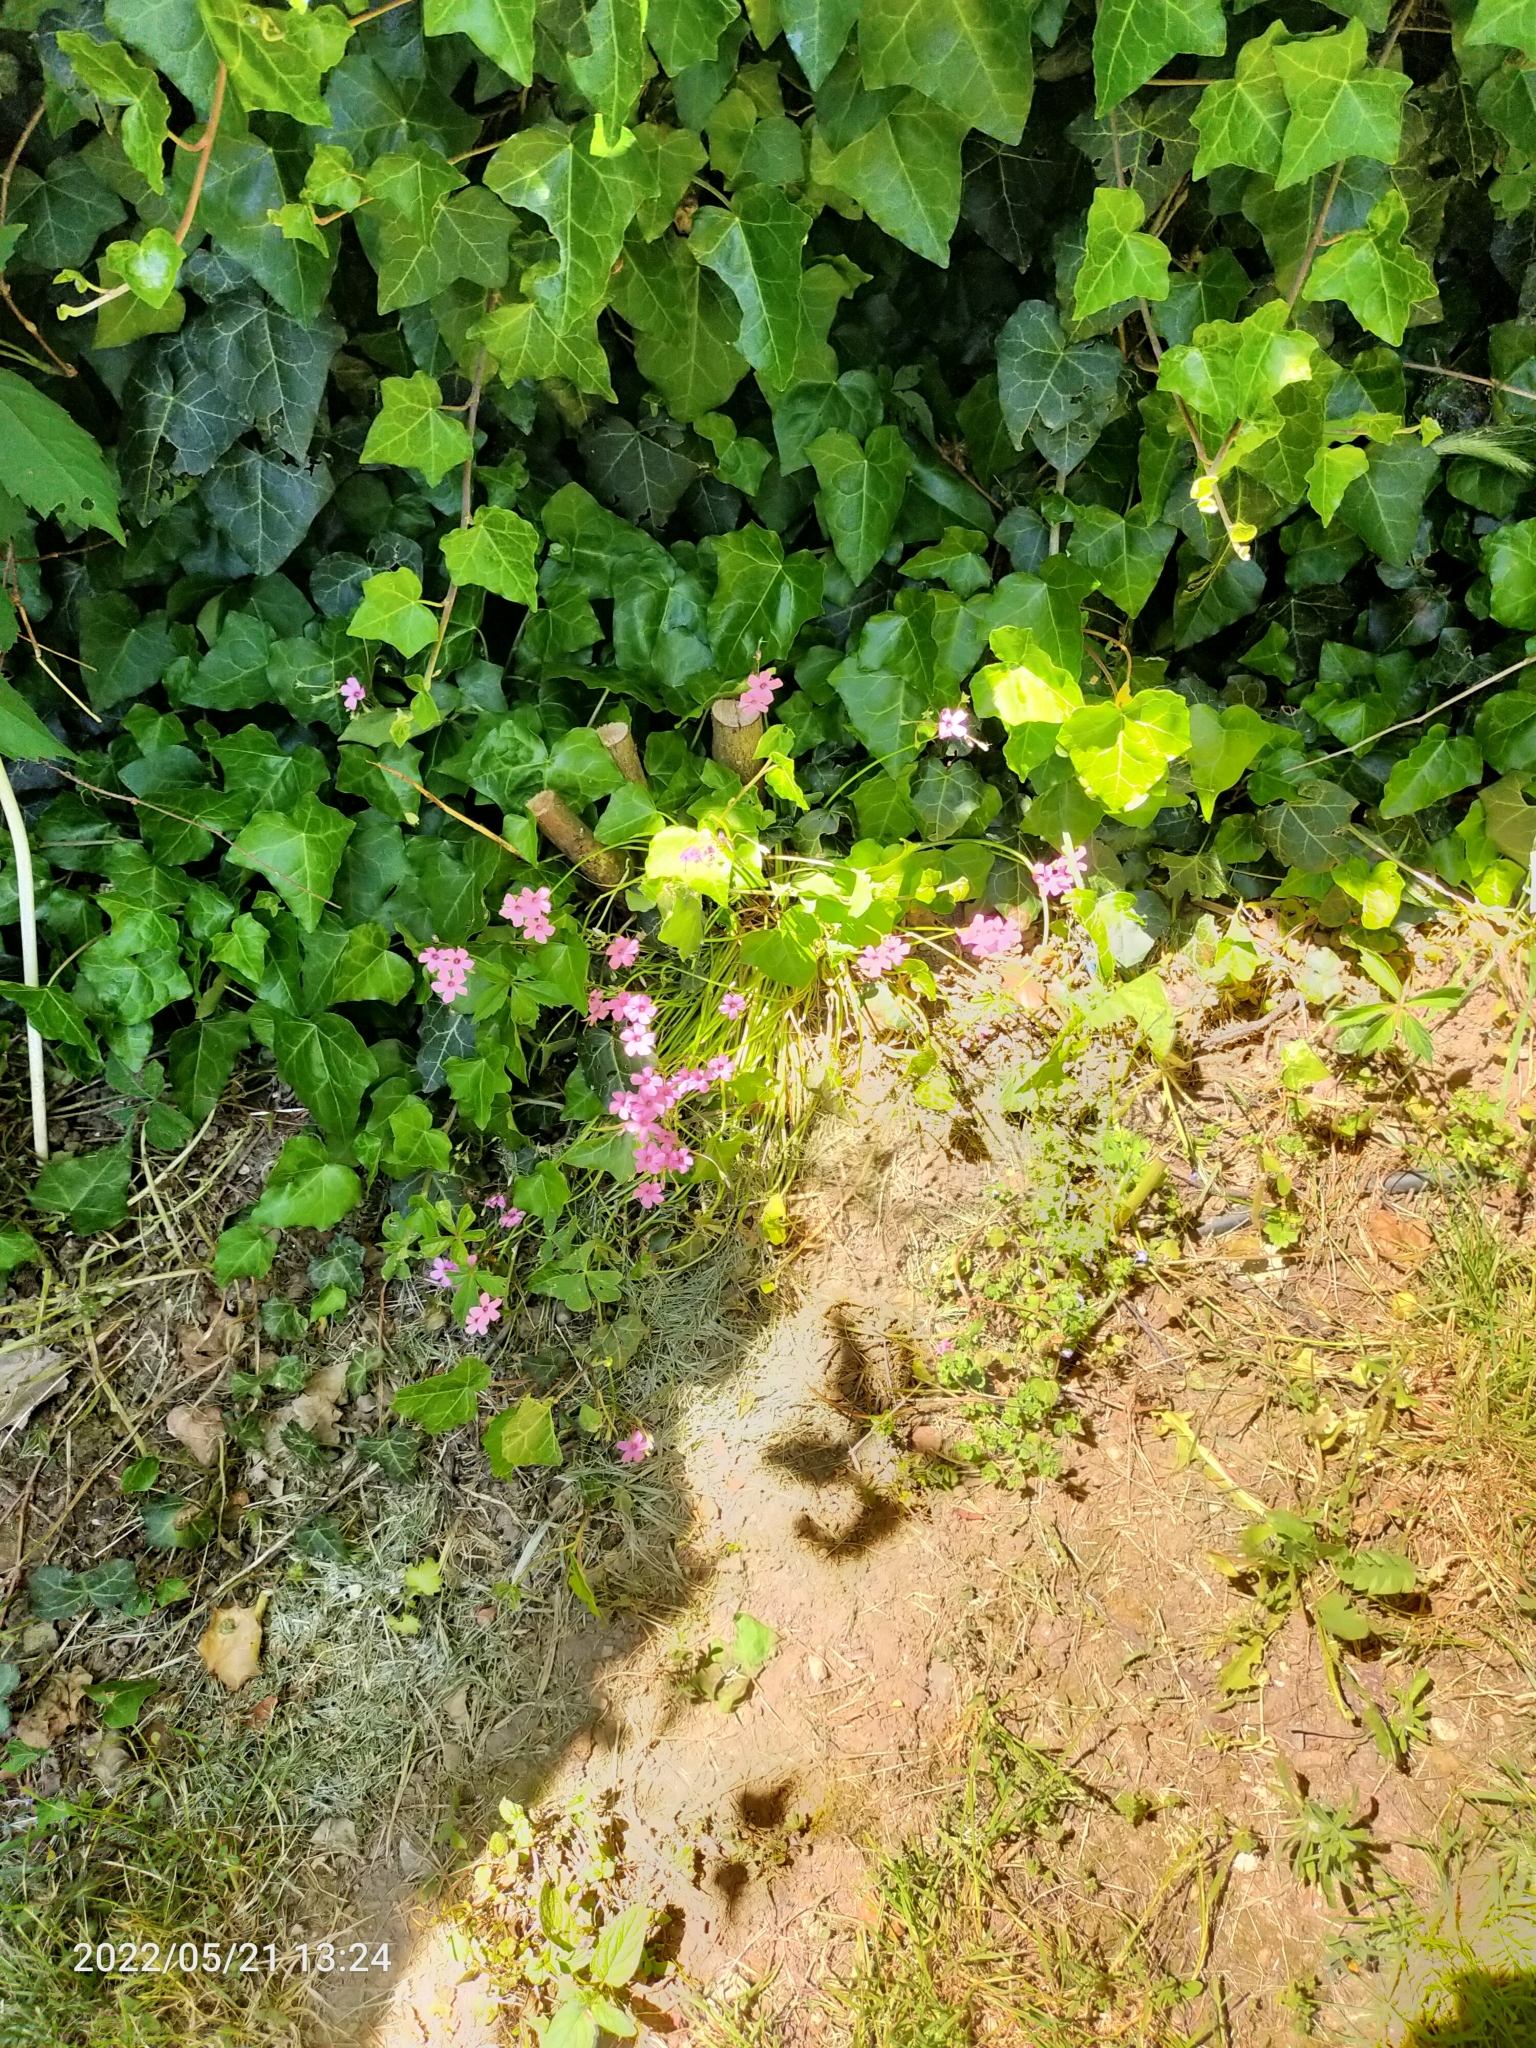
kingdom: Plantae
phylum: Tracheophyta
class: Magnoliopsida
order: Oxalidales
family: Oxalidaceae
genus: Oxalis
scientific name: Oxalis articulata
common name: Pink-sorrel
